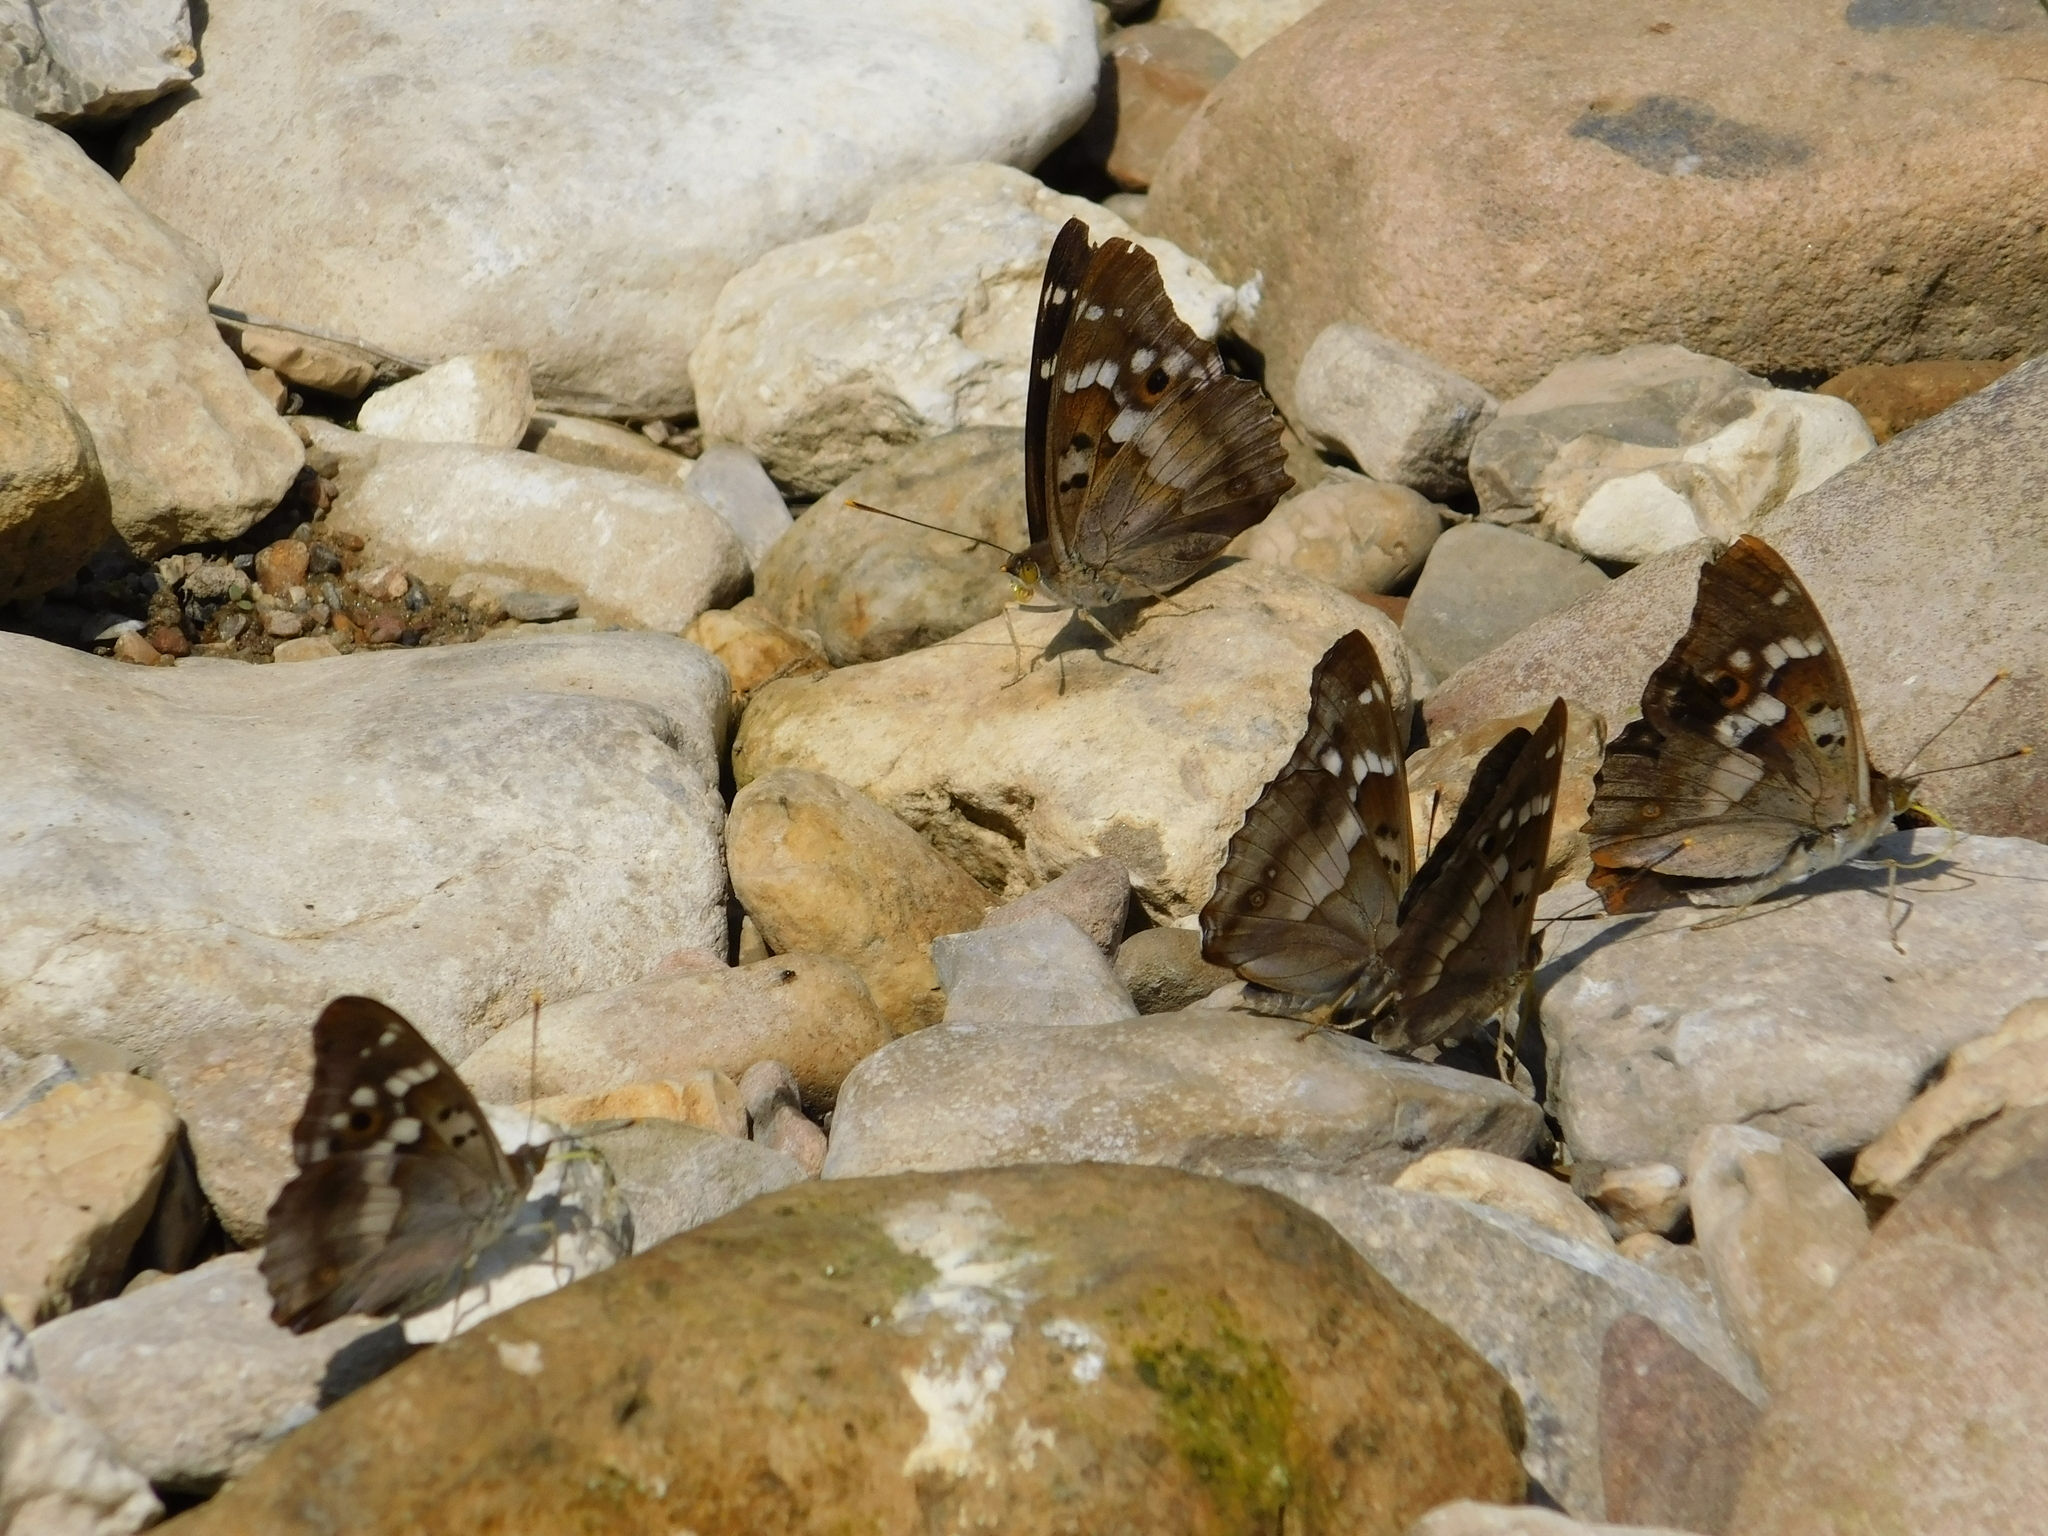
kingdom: Animalia
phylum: Arthropoda
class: Insecta
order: Lepidoptera
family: Nymphalidae
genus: Apatura
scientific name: Apatura ilia
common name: Lesser purple emperor
